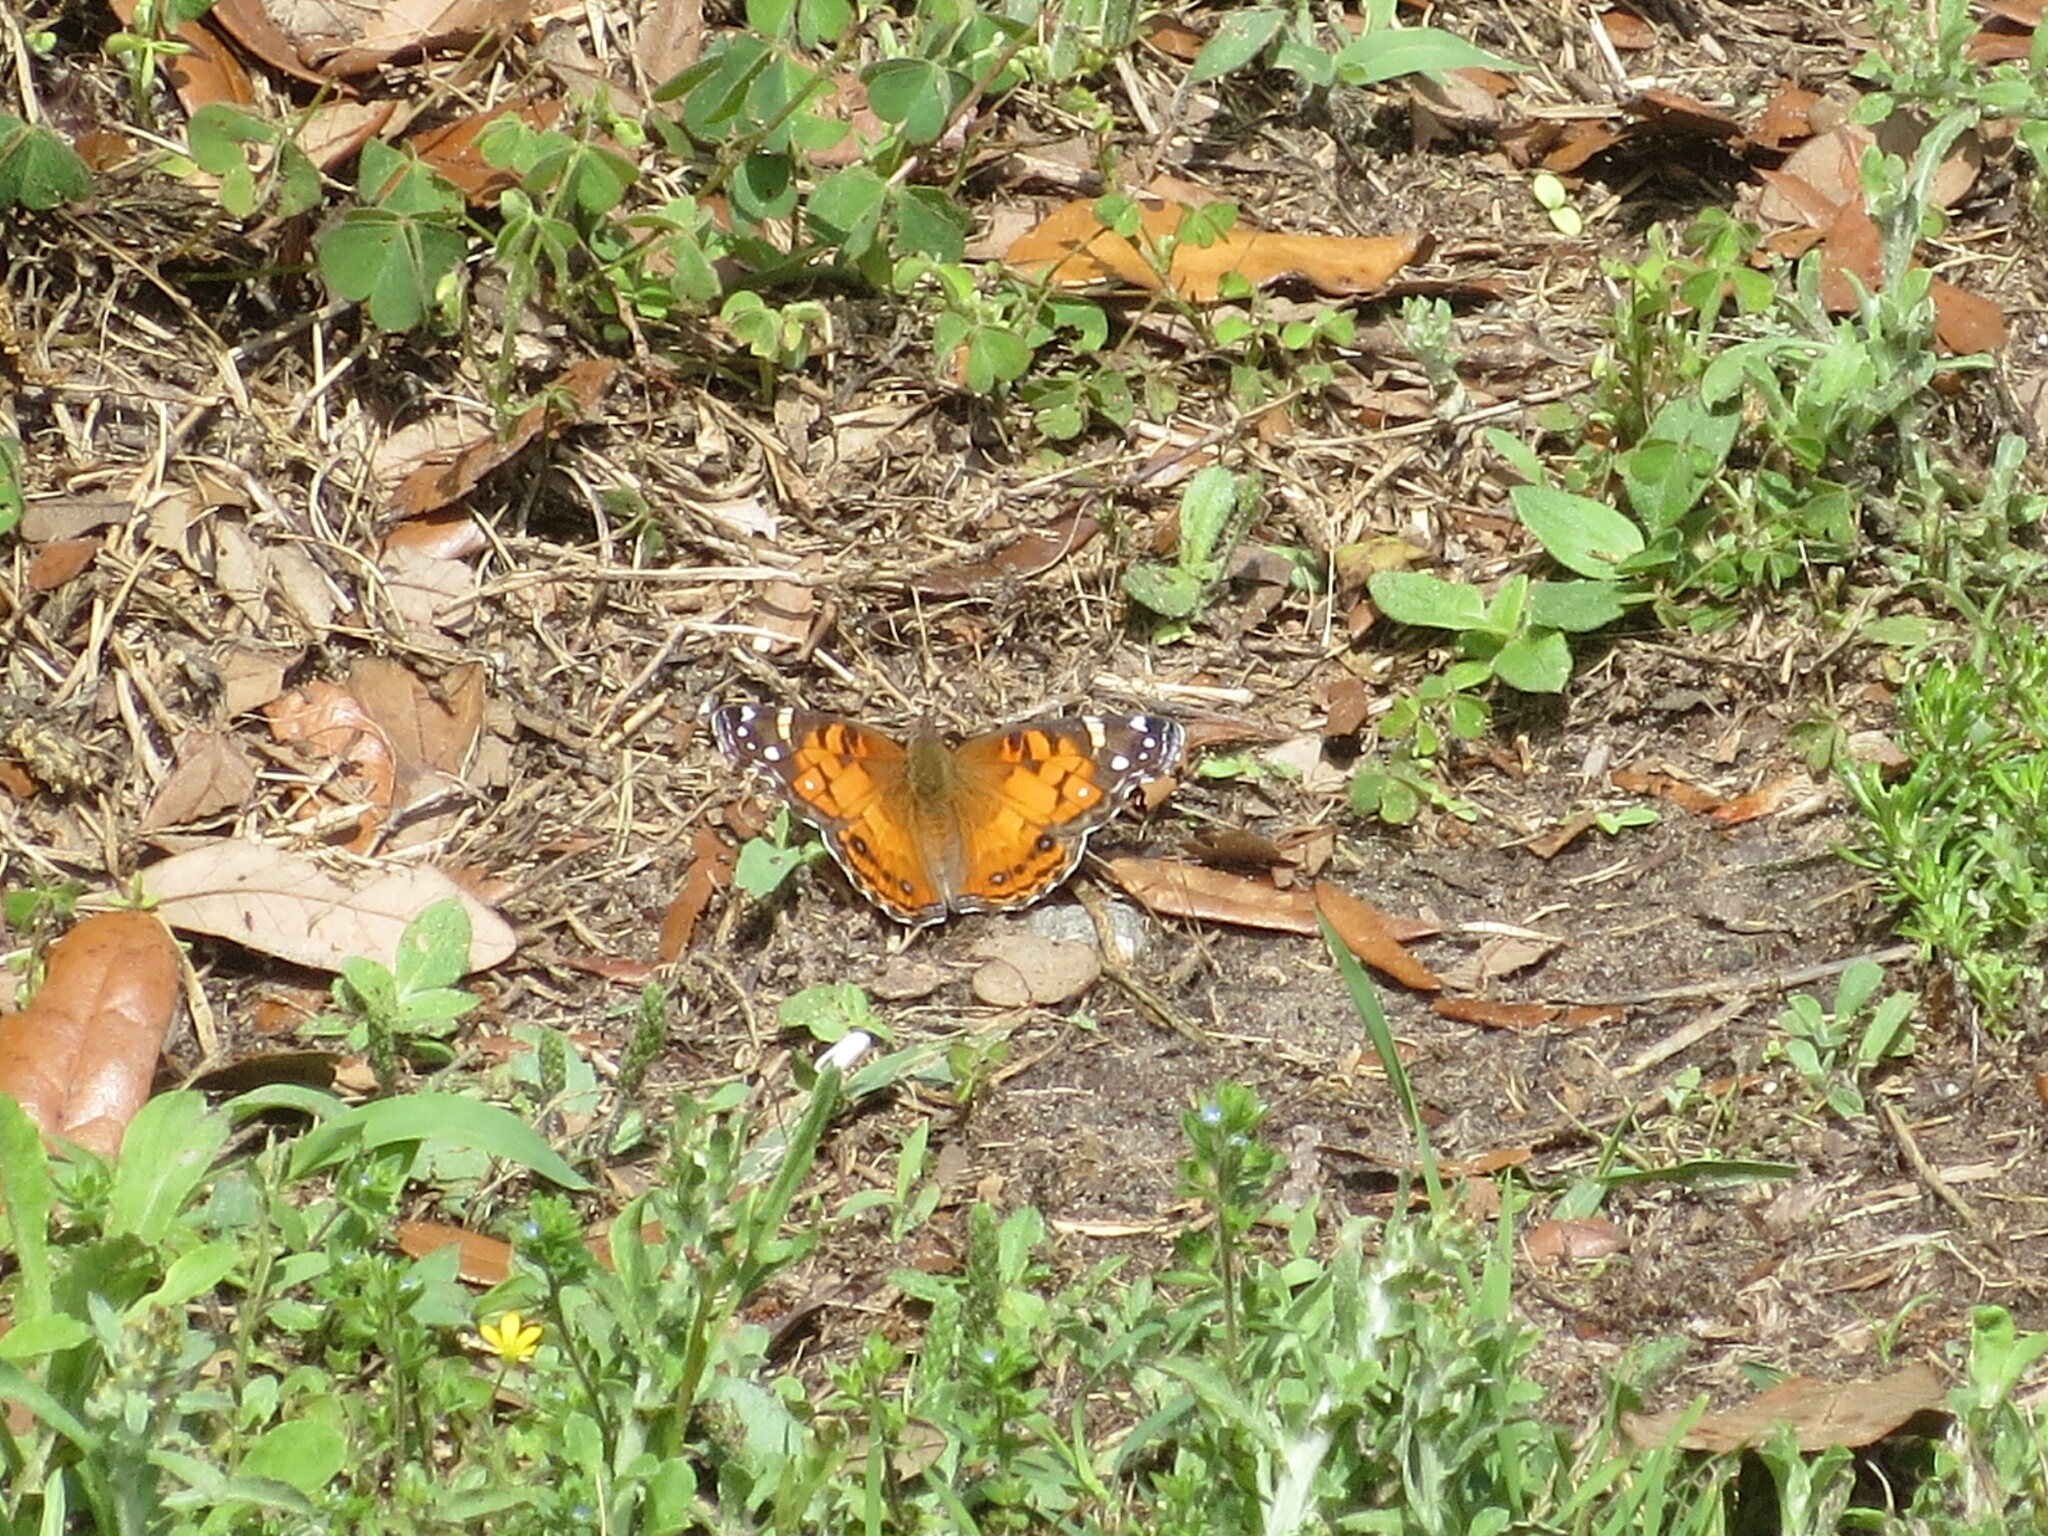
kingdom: Animalia
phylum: Arthropoda
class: Insecta
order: Lepidoptera
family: Nymphalidae
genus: Vanessa
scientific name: Vanessa virginiensis
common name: American lady
